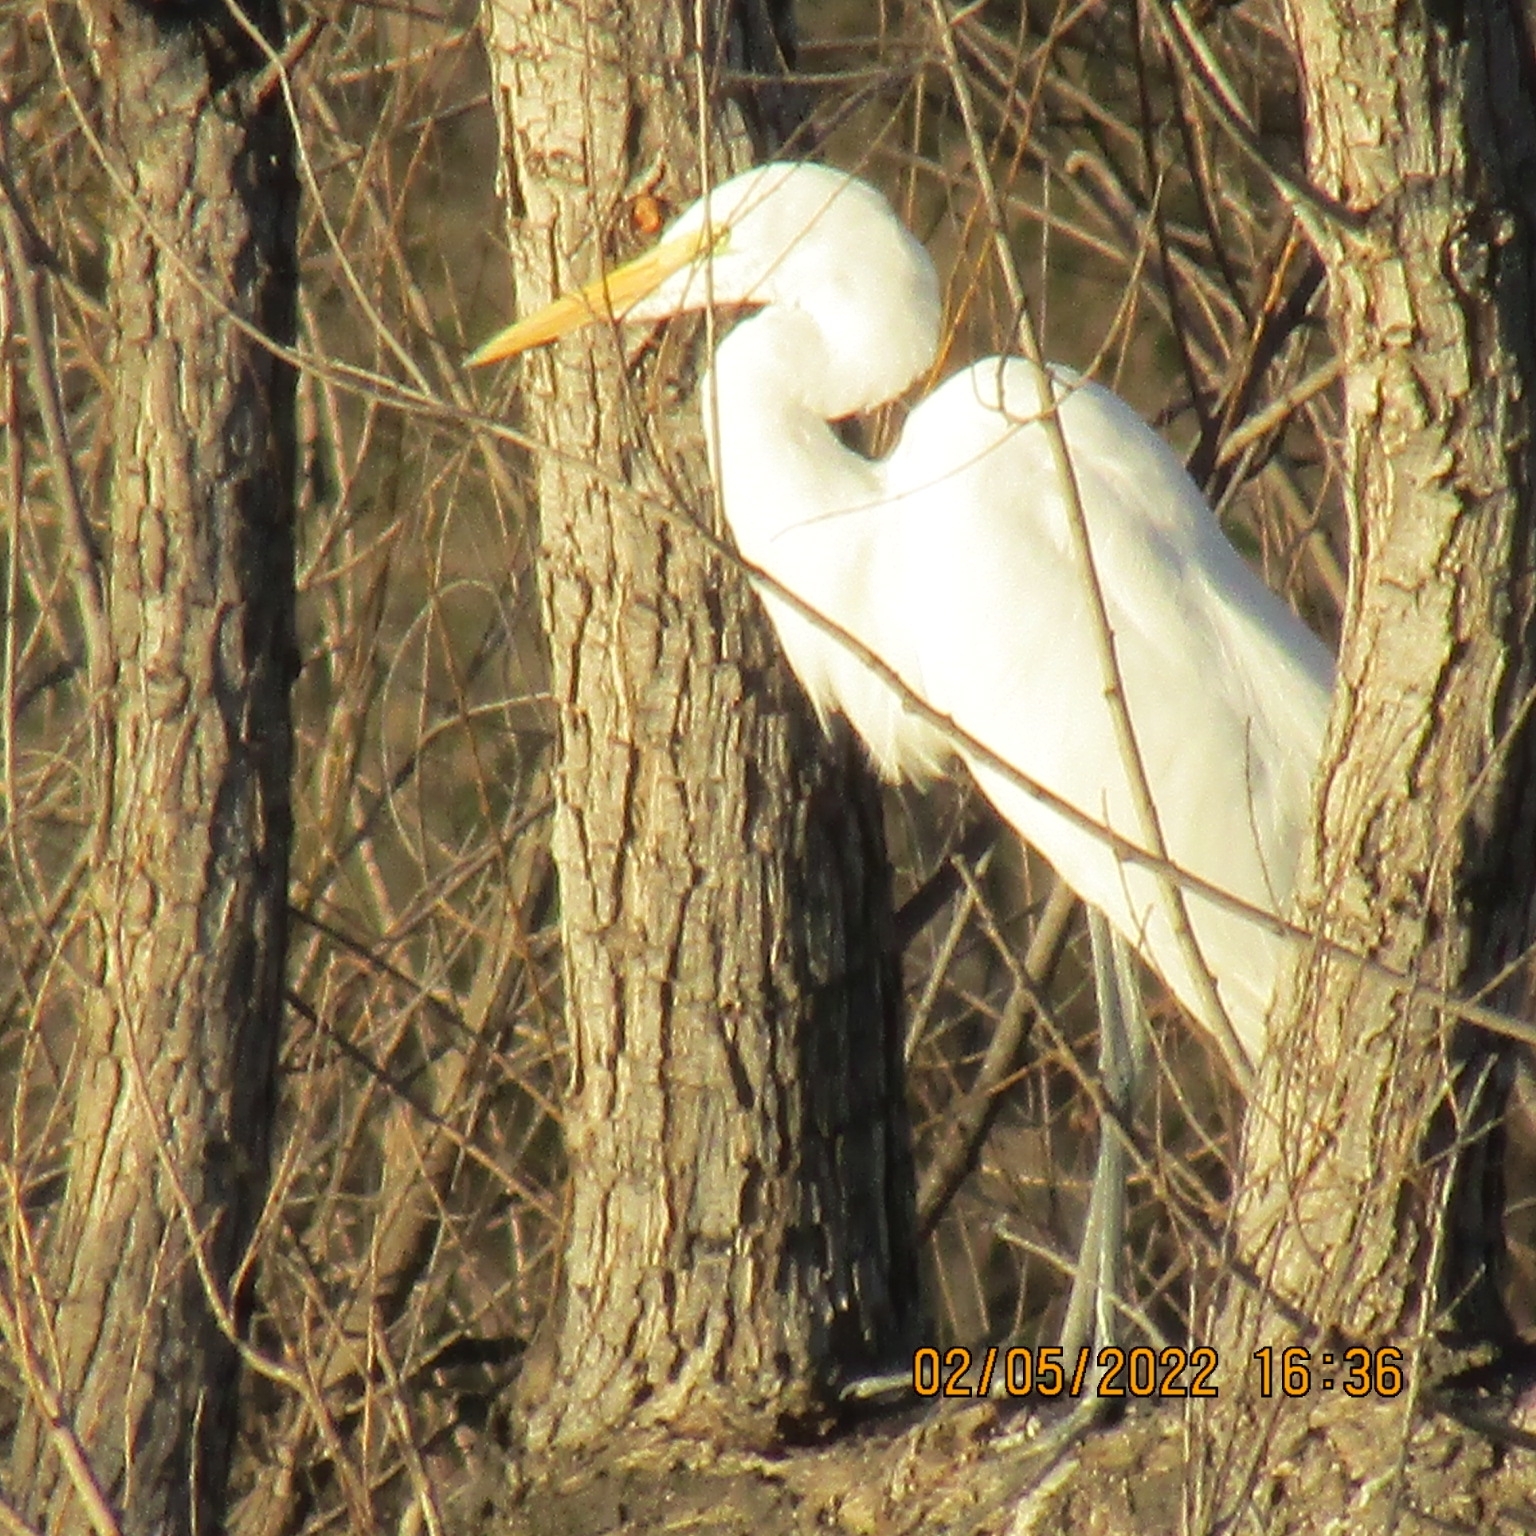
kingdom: Animalia
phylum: Chordata
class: Aves
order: Pelecaniformes
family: Ardeidae
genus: Ardea
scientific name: Ardea alba
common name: Great egret
